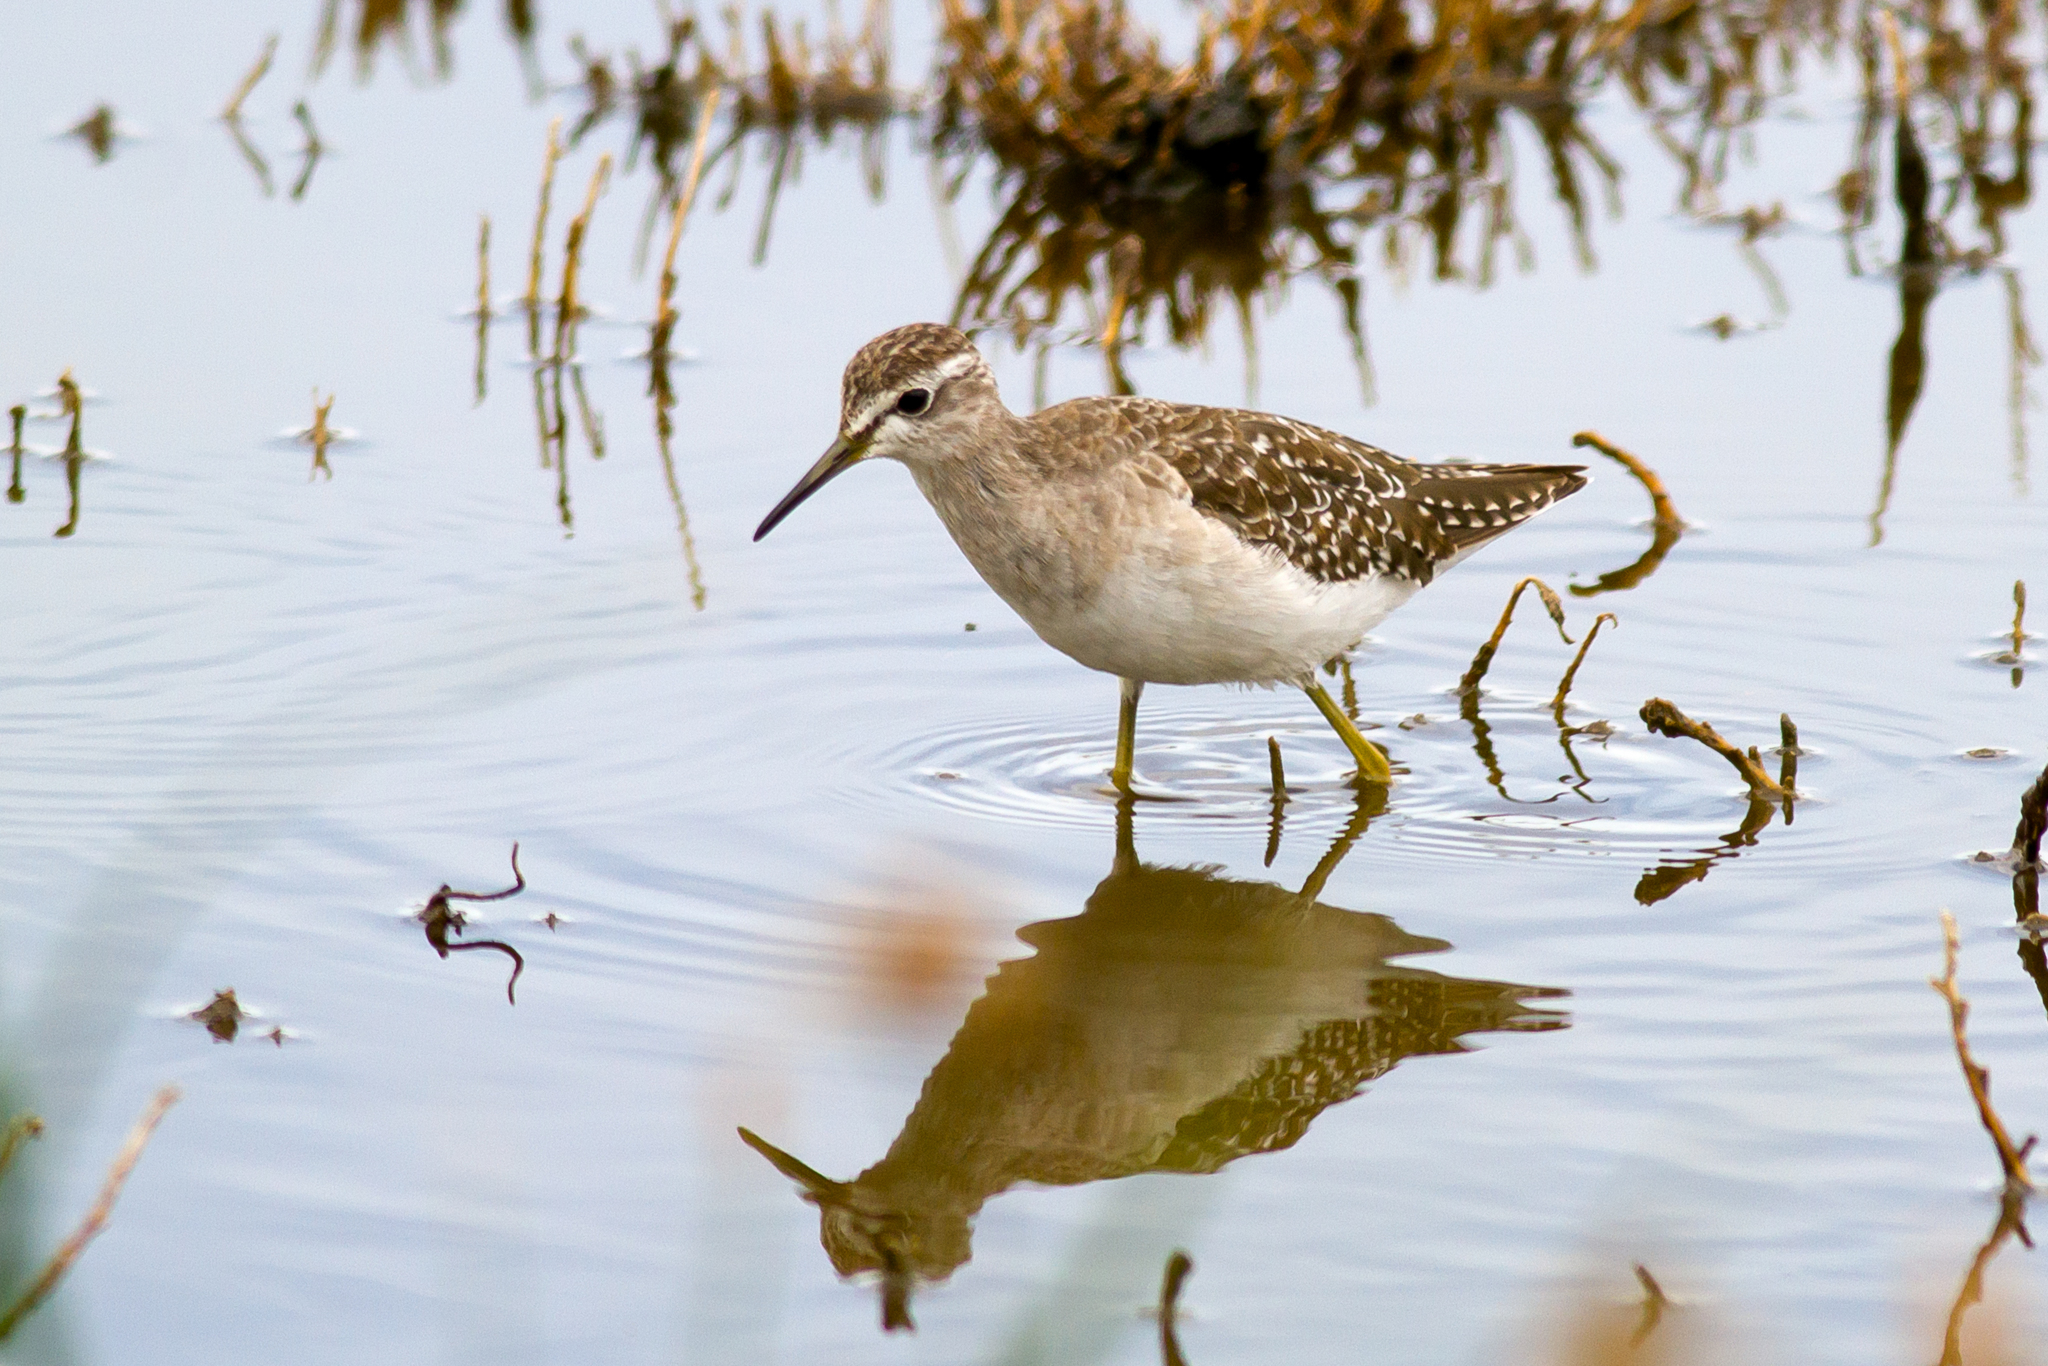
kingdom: Animalia
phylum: Chordata
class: Aves
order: Charadriiformes
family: Scolopacidae
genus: Tringa
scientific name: Tringa glareola
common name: Wood sandpiper
